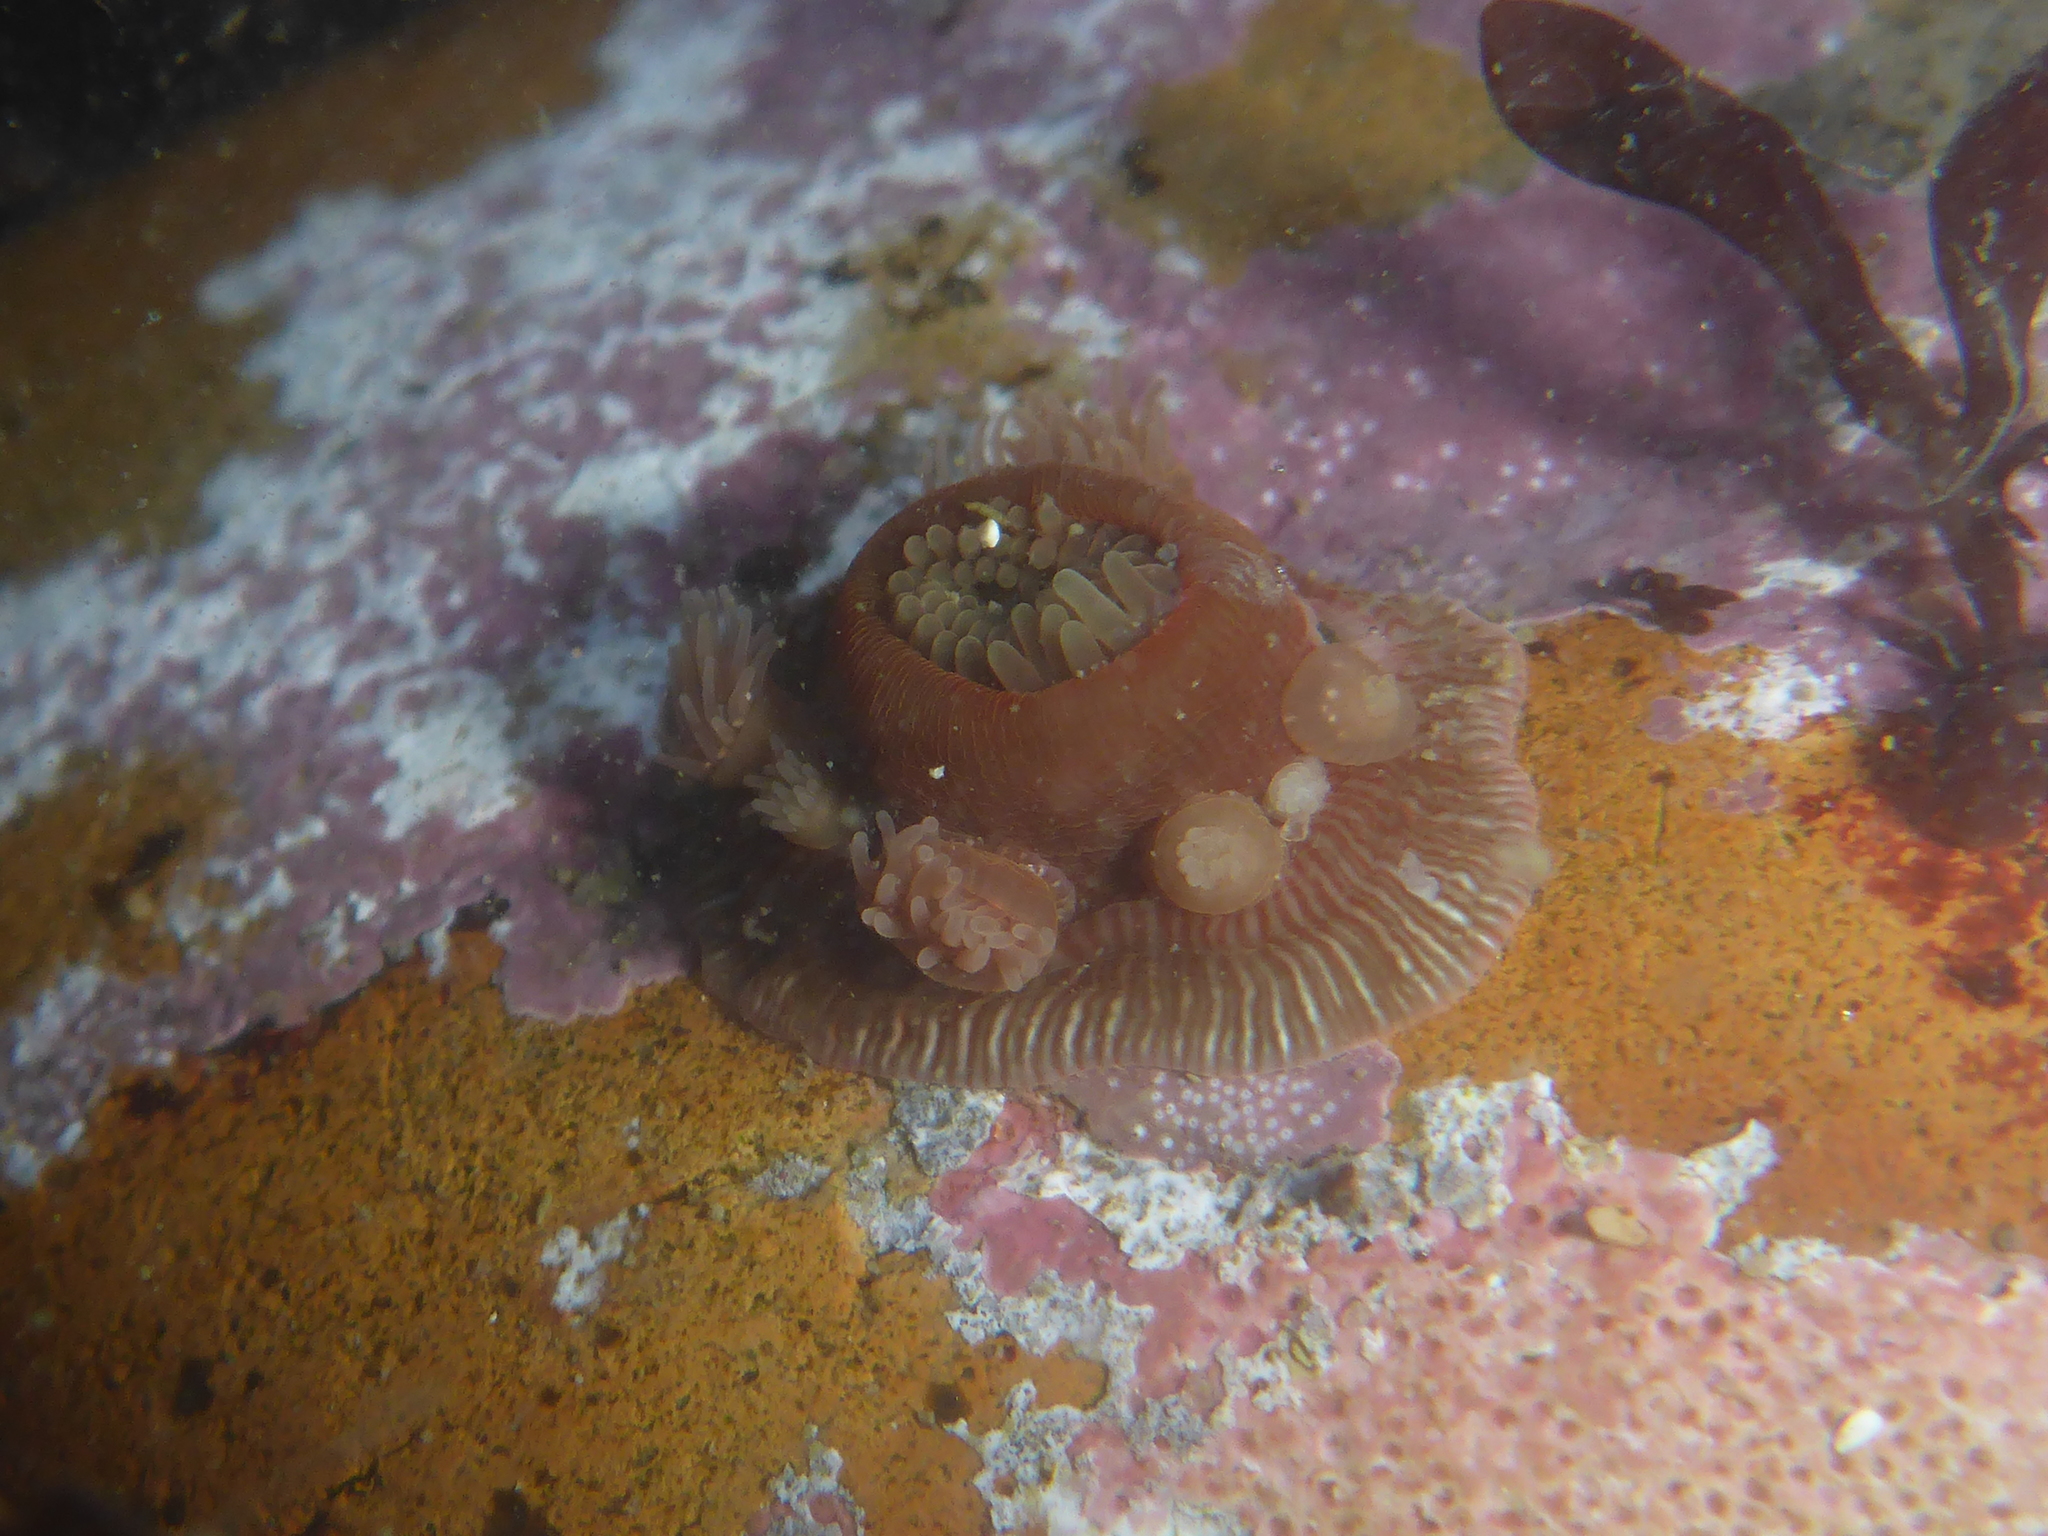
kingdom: Animalia
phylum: Cnidaria
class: Anthozoa
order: Actiniaria
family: Actiniidae
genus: Epiactis
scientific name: Epiactis prolifera
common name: Brooding anemone
